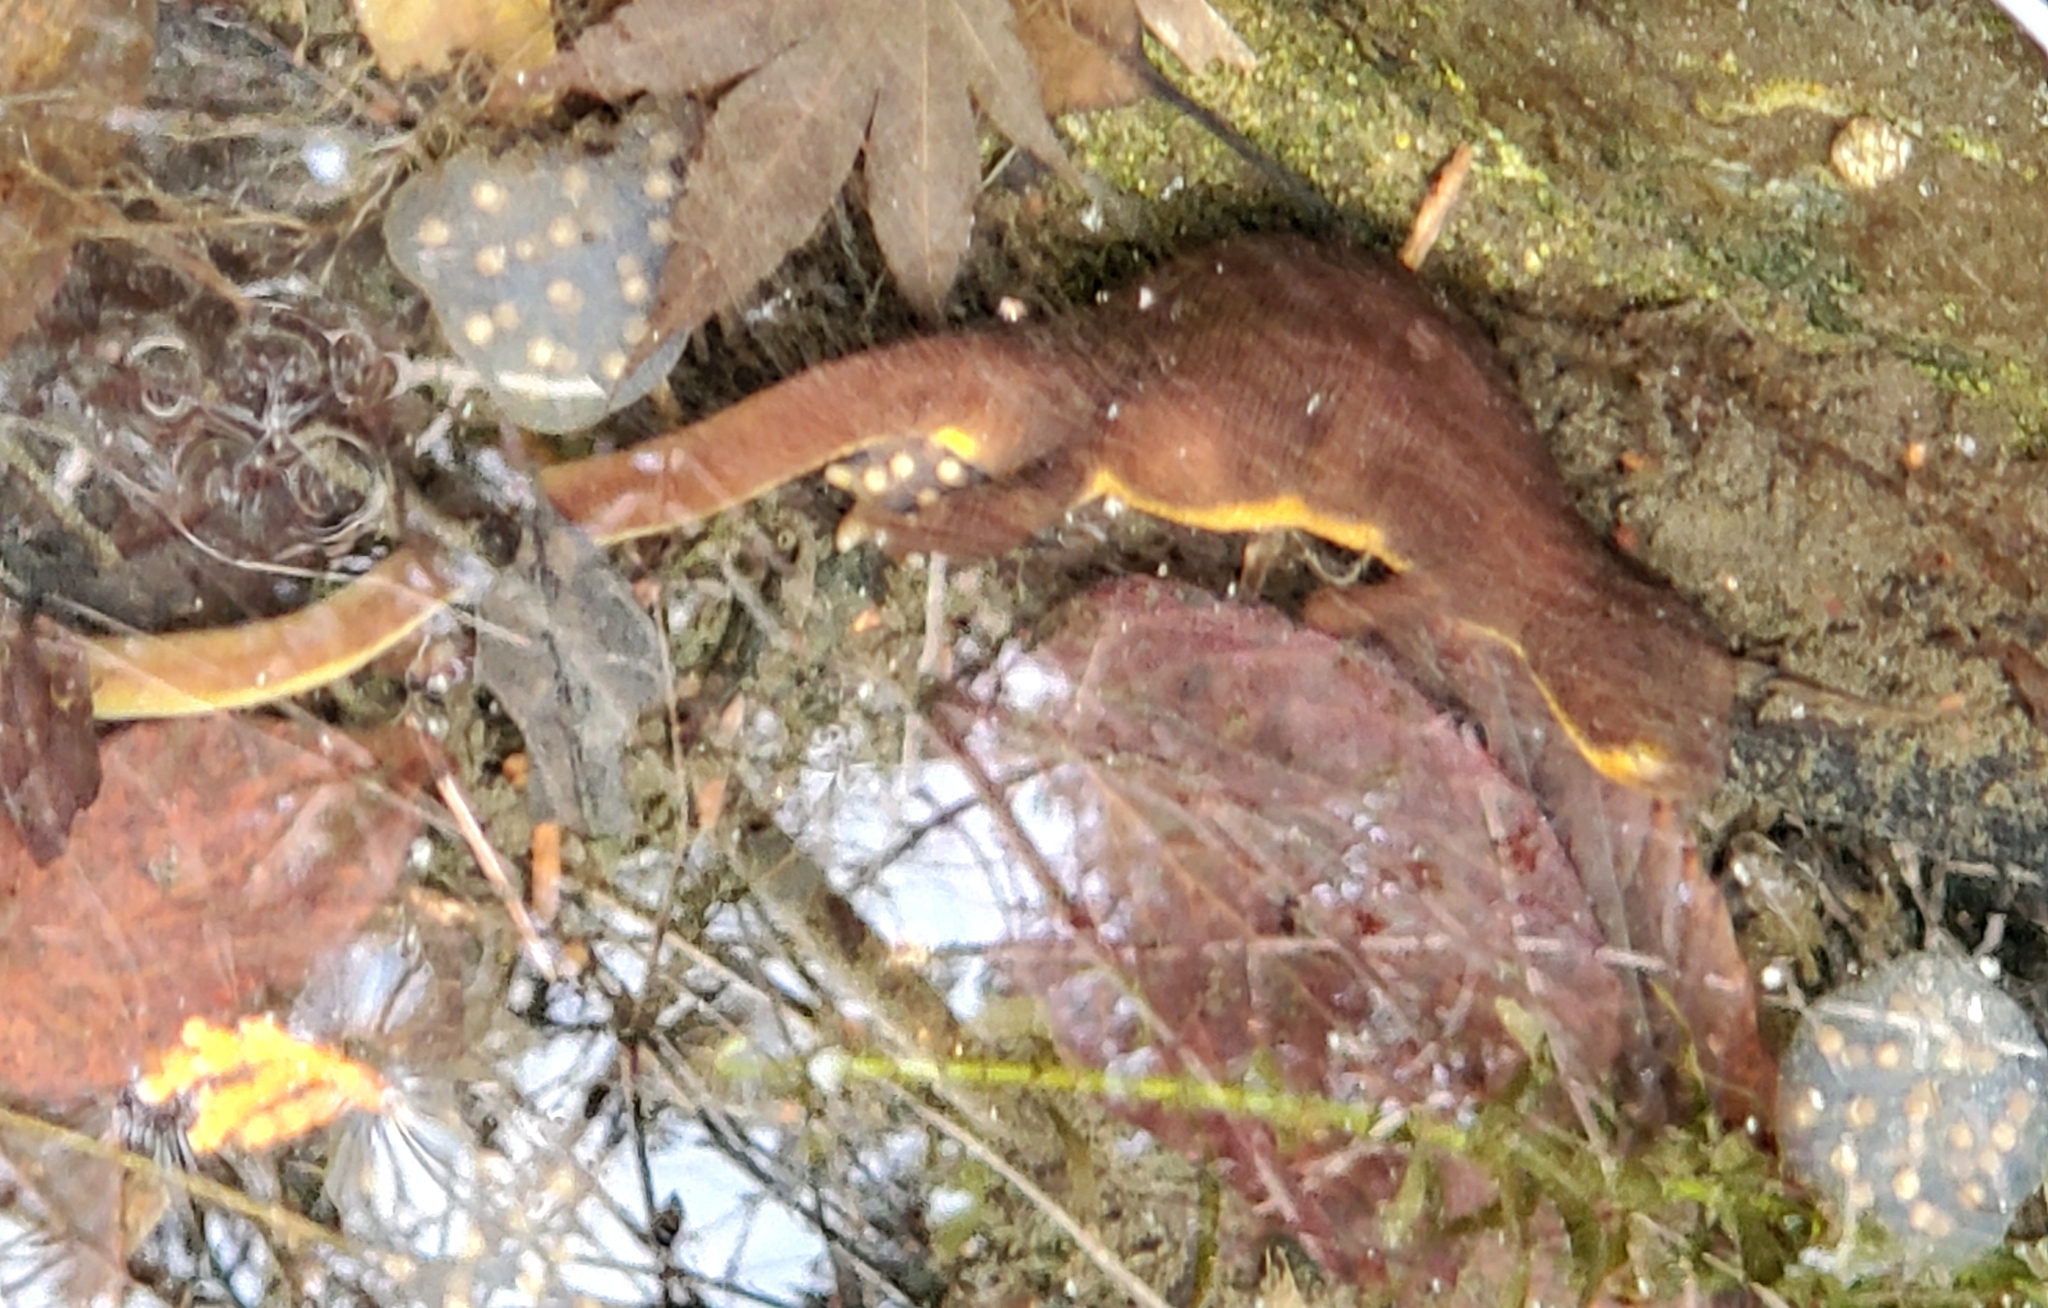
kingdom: Animalia
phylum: Chordata
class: Amphibia
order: Caudata
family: Salamandridae
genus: Taricha
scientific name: Taricha torosa
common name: California newt
